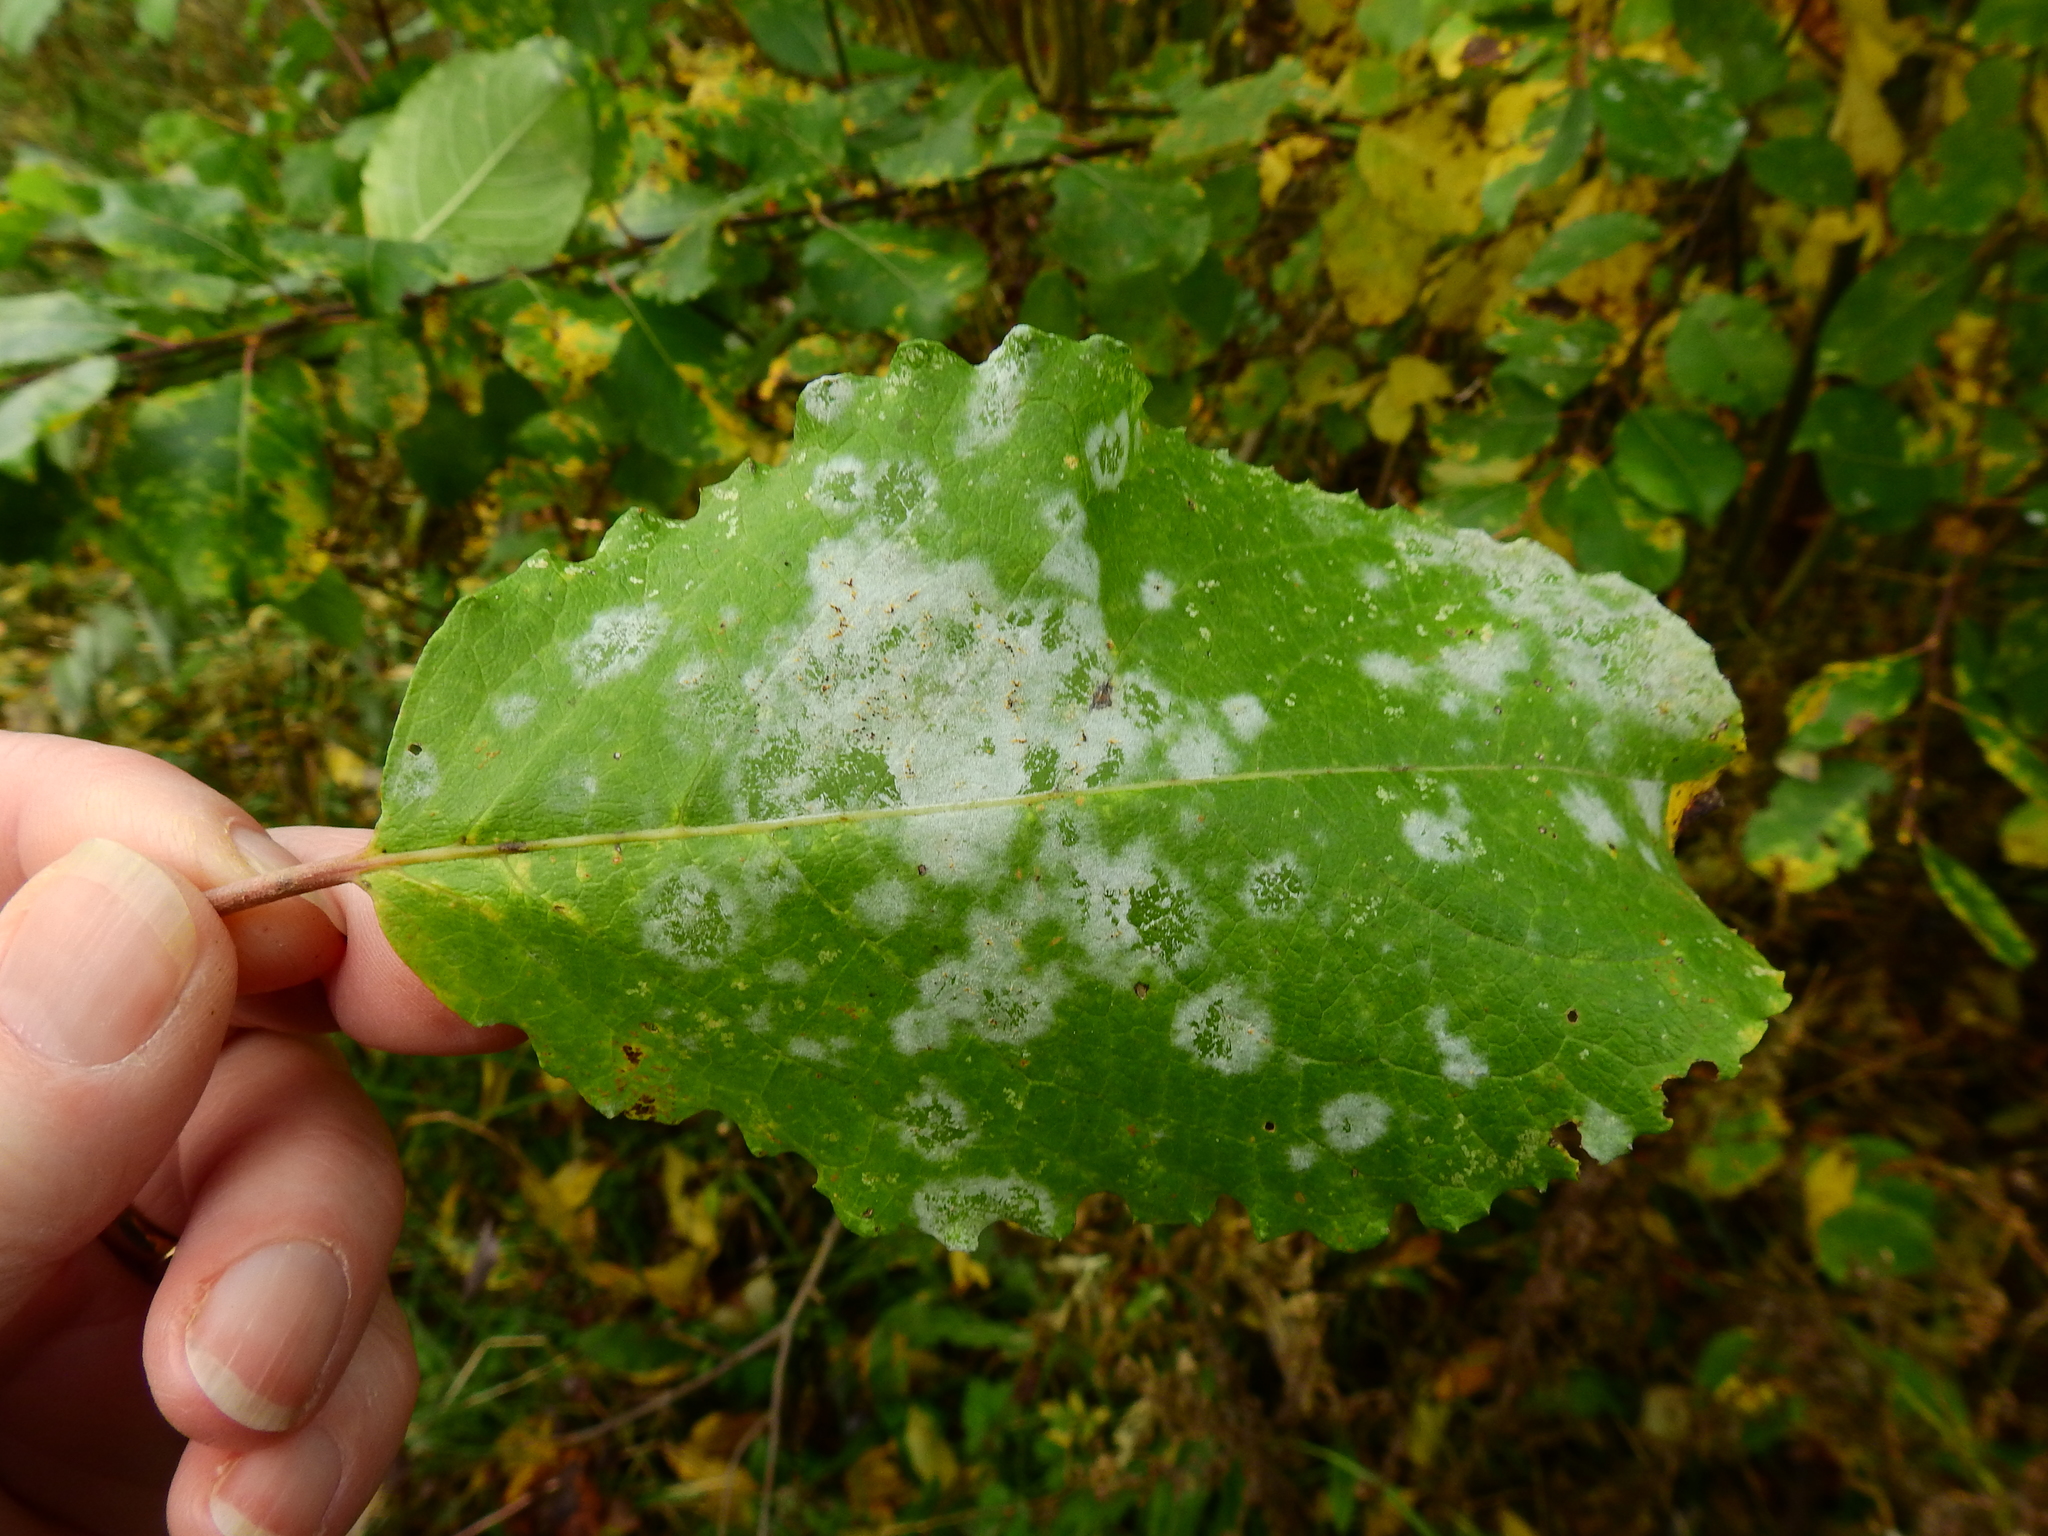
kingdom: Fungi
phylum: Ascomycota
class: Leotiomycetes
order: Helotiales
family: Erysiphaceae
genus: Erysiphe
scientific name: Erysiphe capreae
